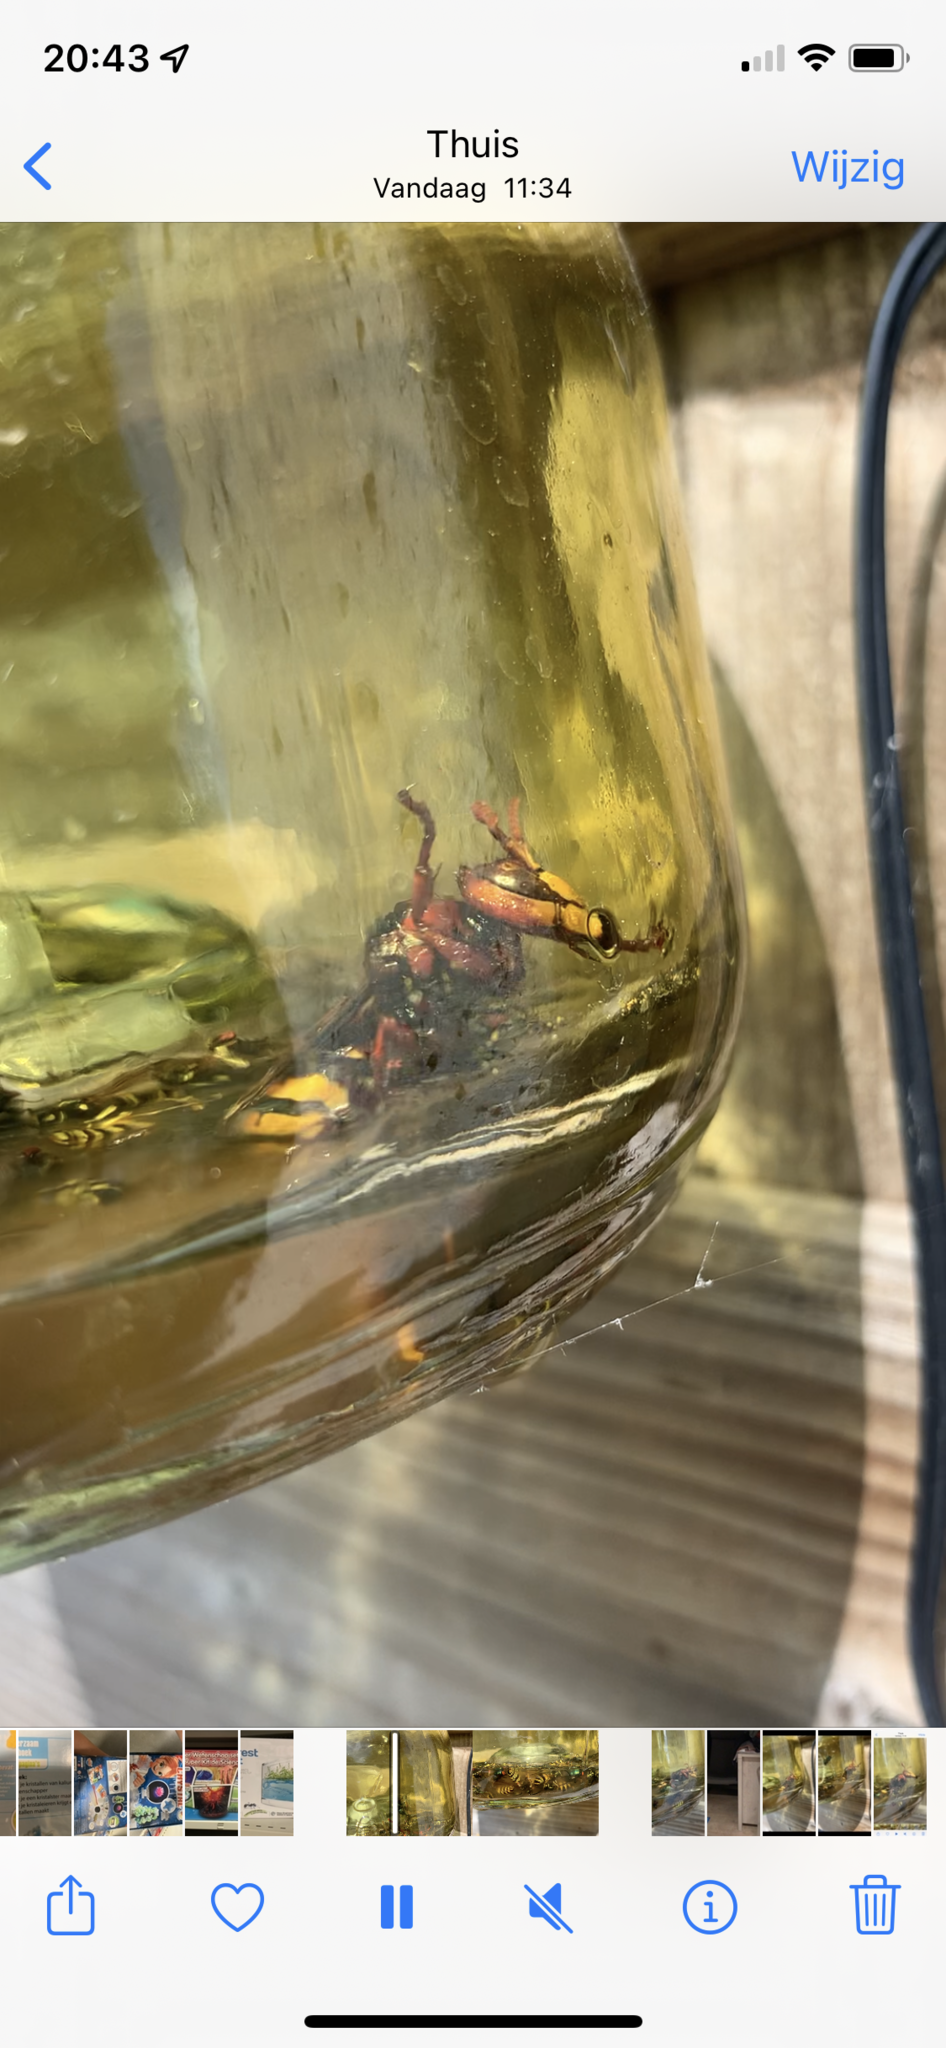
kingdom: Animalia
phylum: Arthropoda
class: Insecta
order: Hymenoptera
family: Vespidae
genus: Vespa
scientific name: Vespa crabro
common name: Hornet
